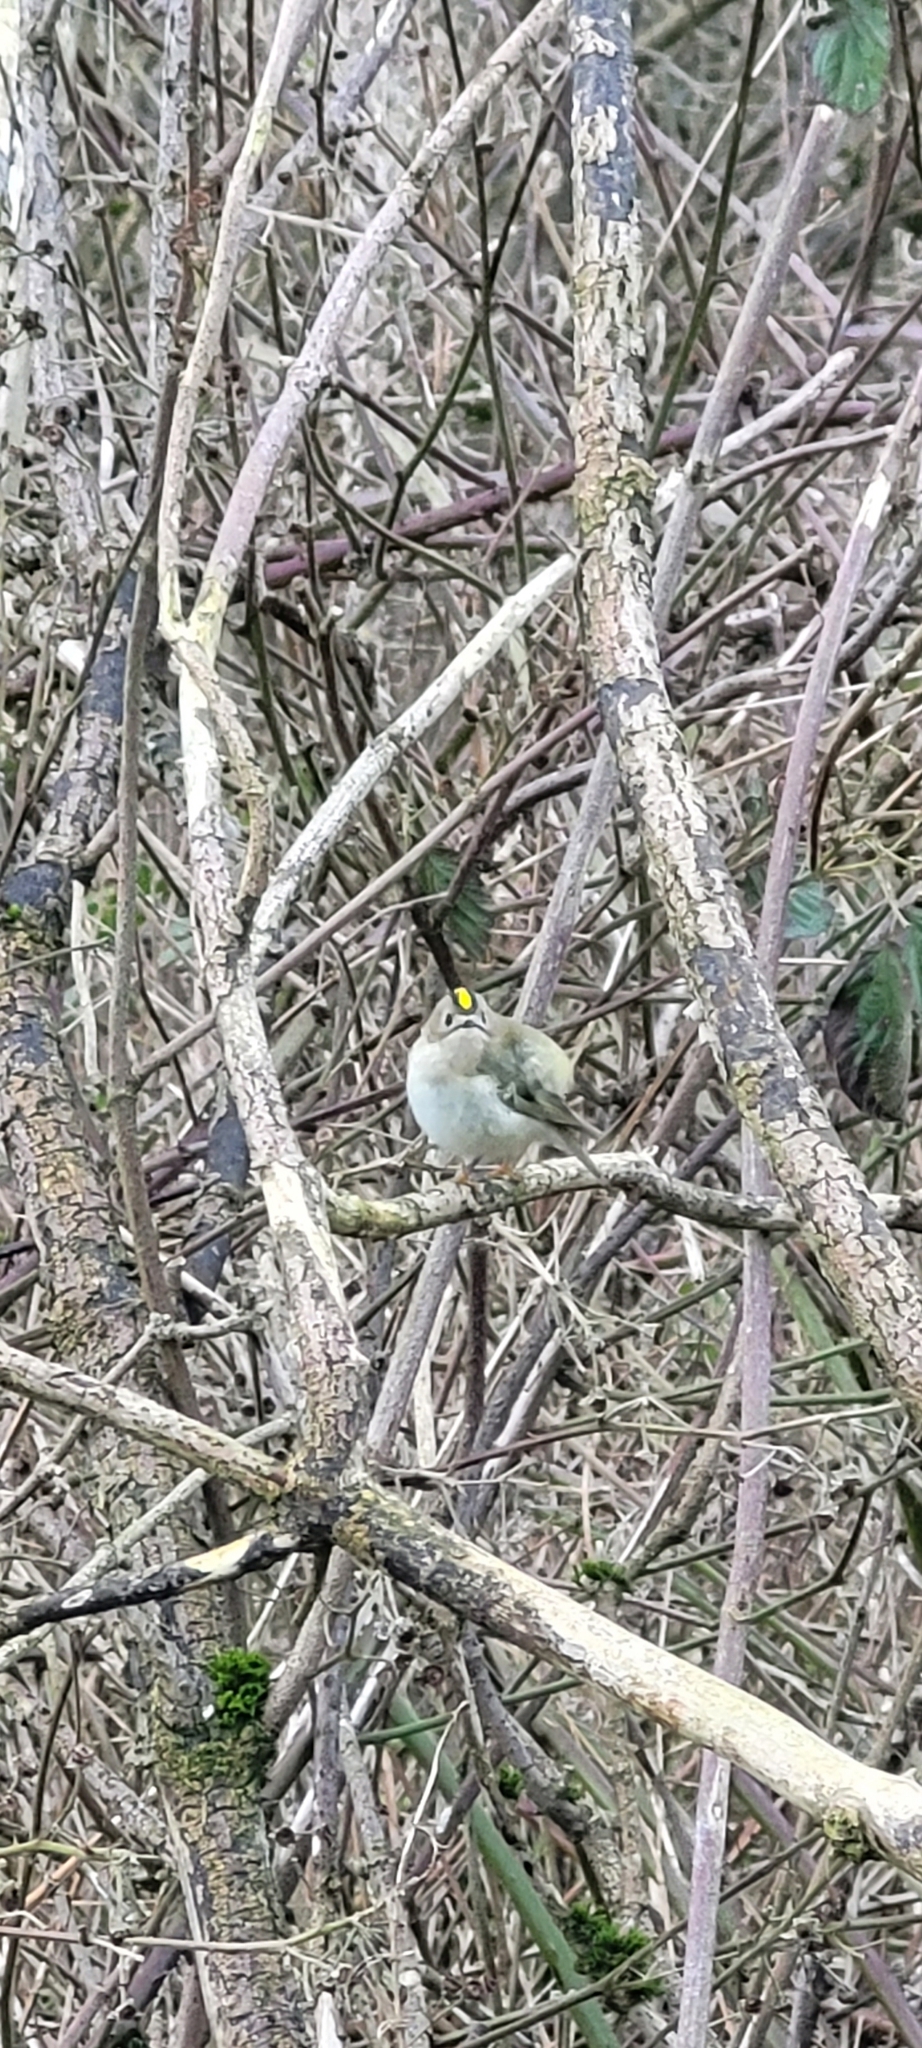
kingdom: Animalia
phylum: Chordata
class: Aves
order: Passeriformes
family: Regulidae
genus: Regulus
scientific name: Regulus regulus
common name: Goldcrest
